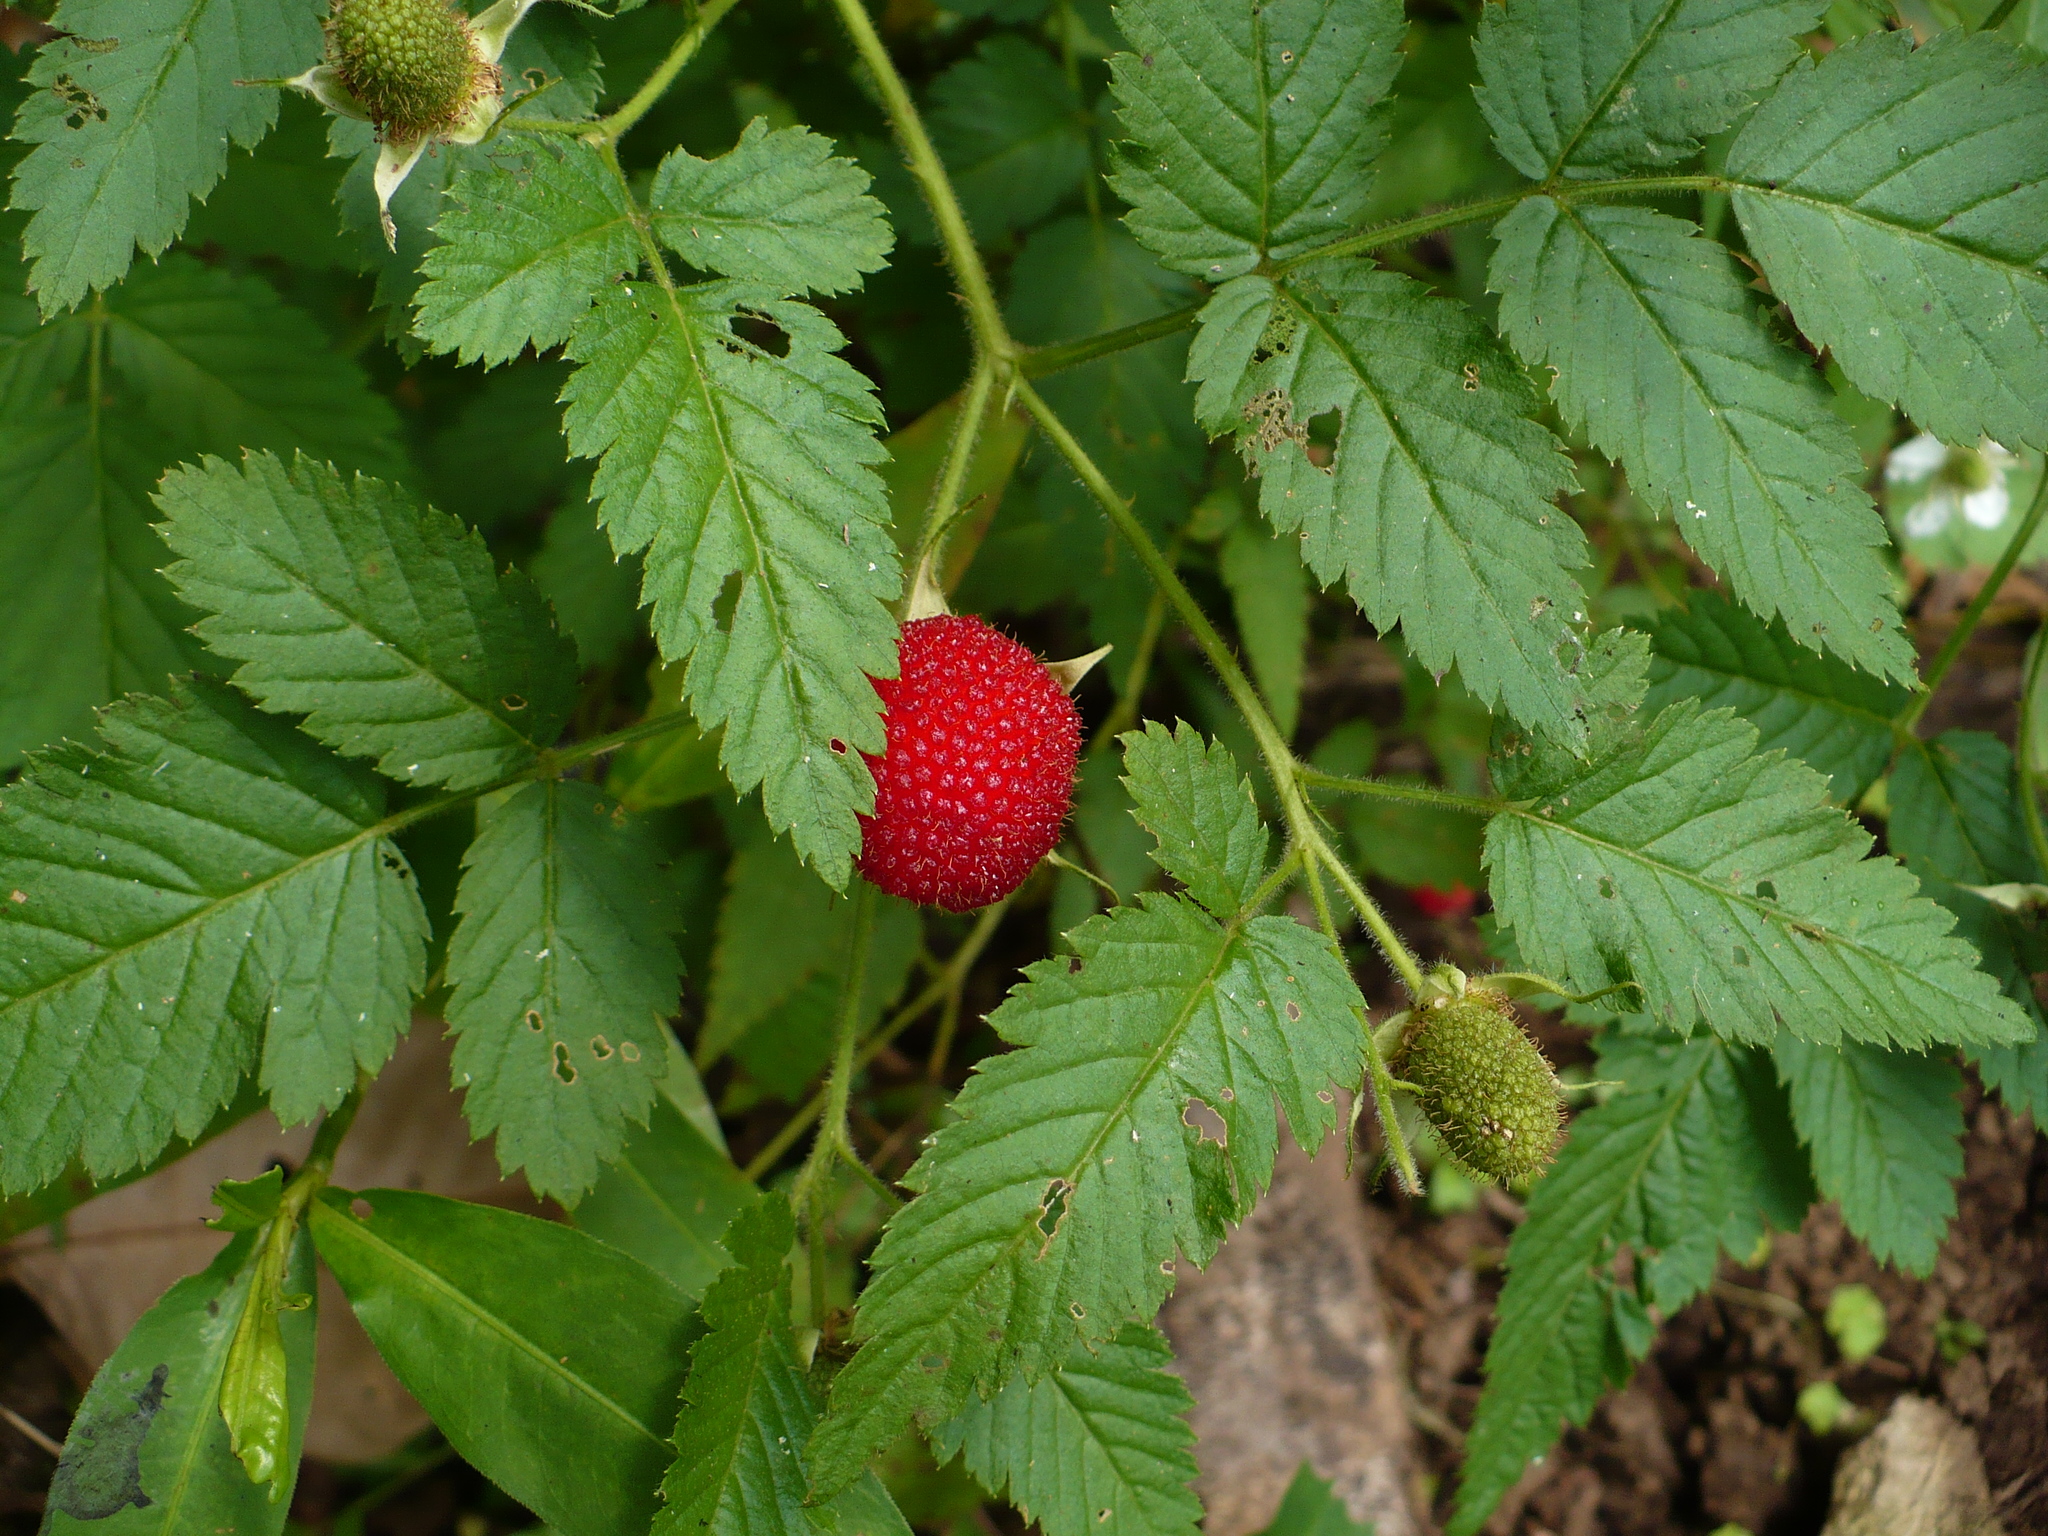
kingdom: Plantae
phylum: Tracheophyta
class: Magnoliopsida
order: Rosales
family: Rosaceae
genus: Rubus
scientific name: Rubus rosifolius
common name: Roseleaf raspberry
